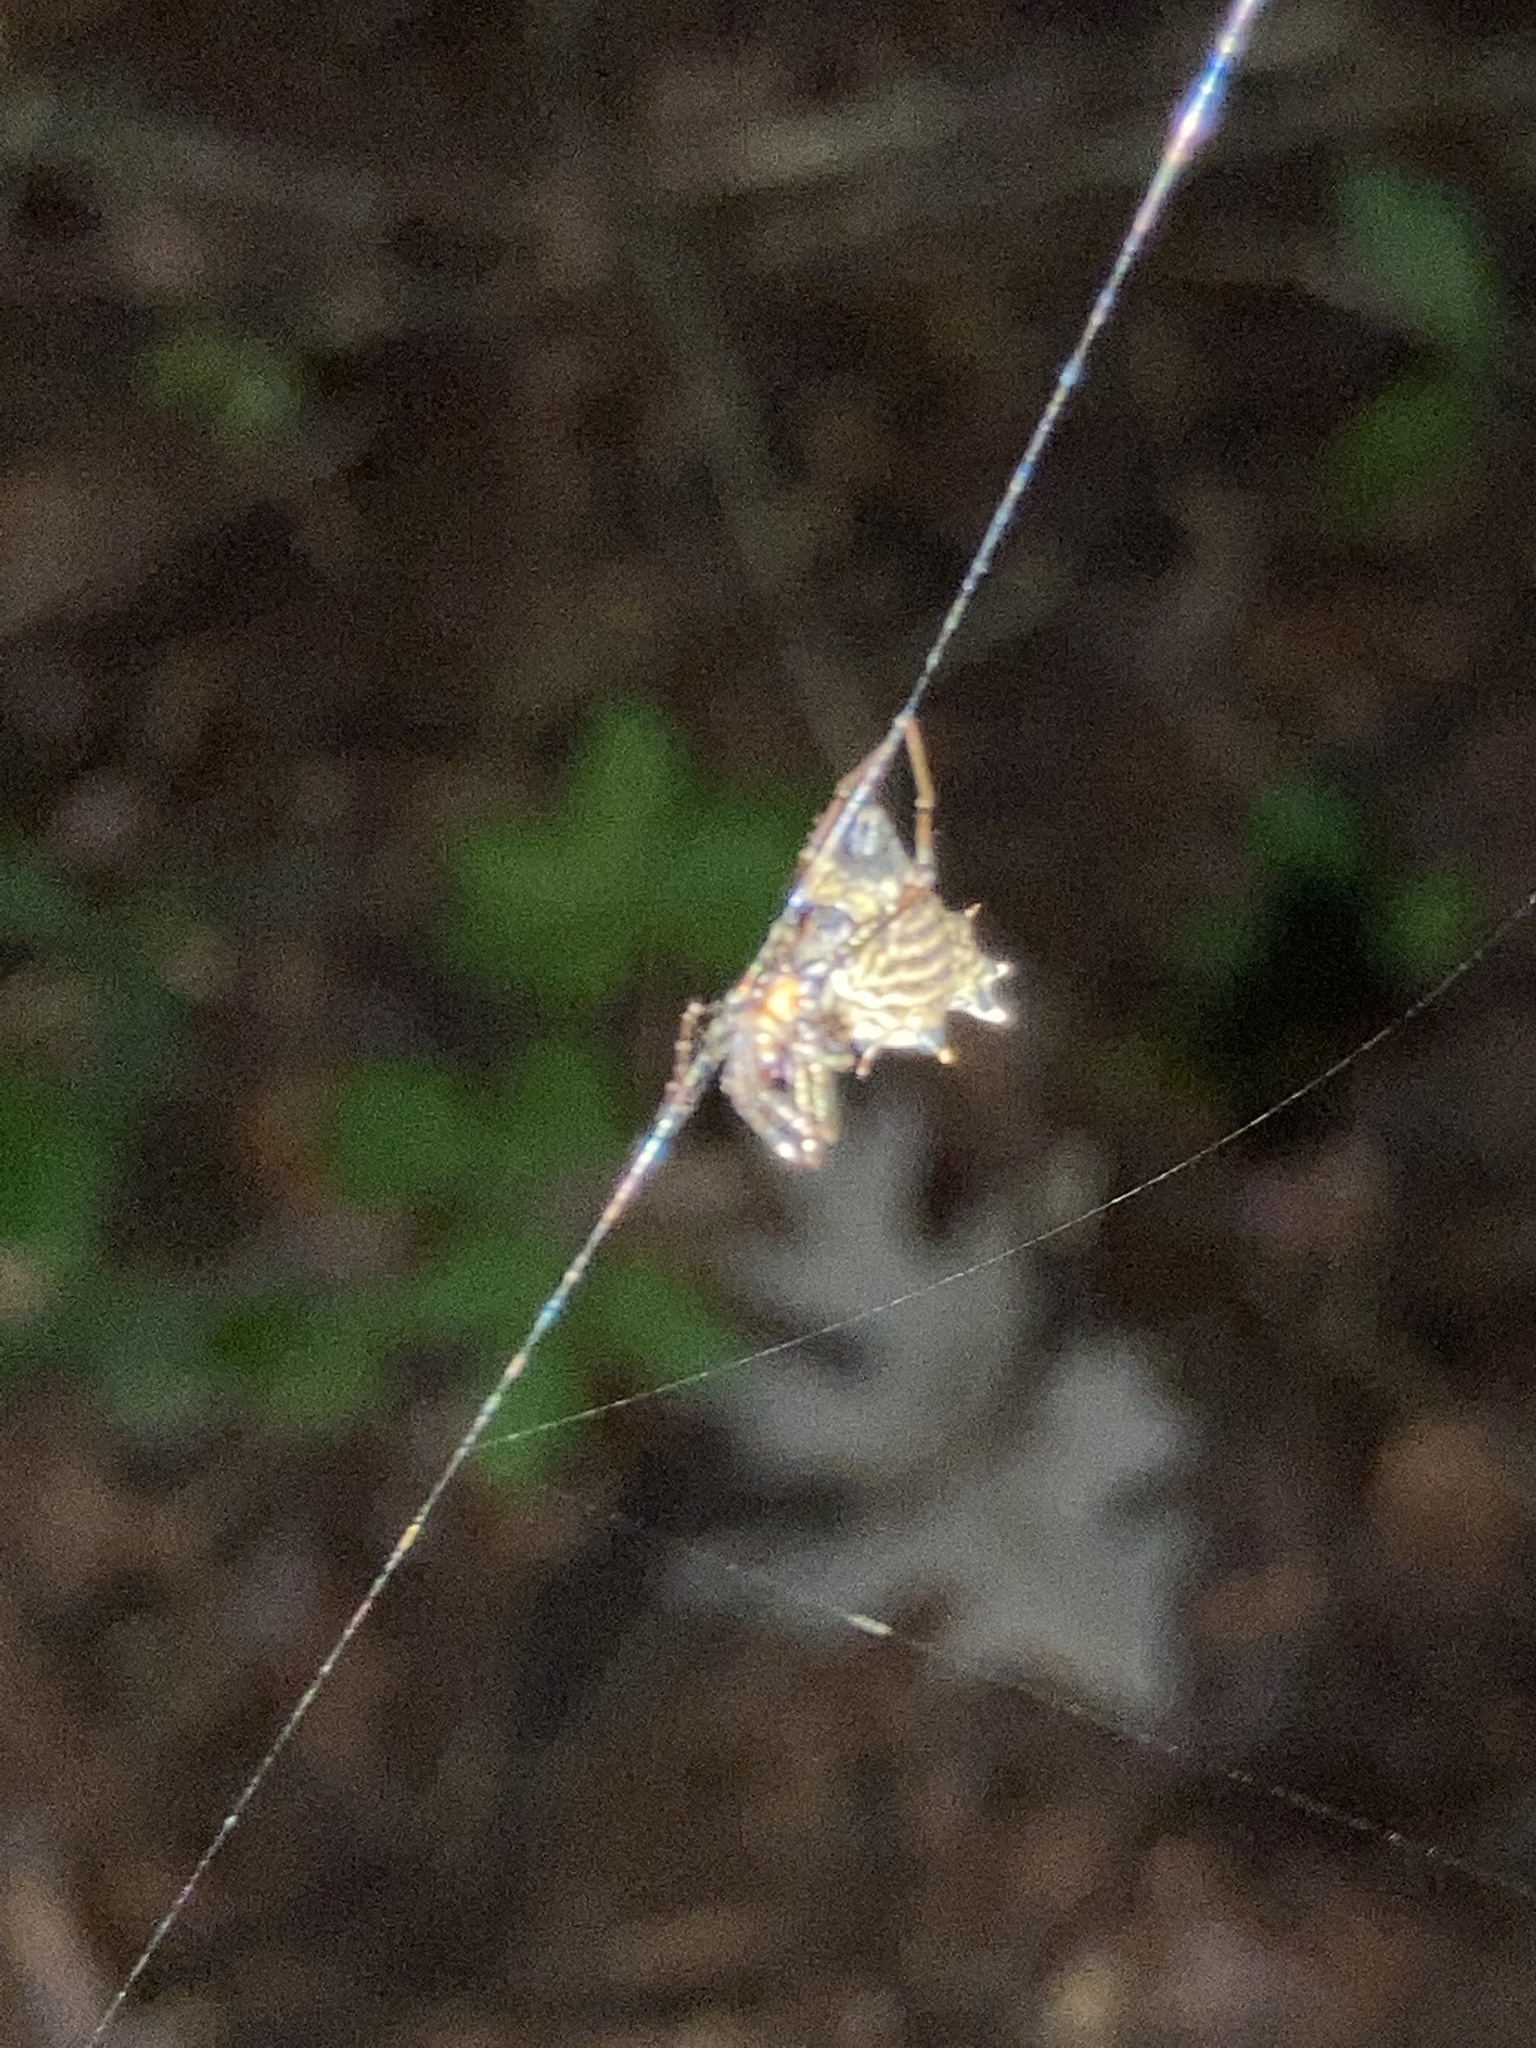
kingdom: Animalia
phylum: Arthropoda
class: Arachnida
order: Araneae
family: Araneidae
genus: Micrathena
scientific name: Micrathena gracilis
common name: Orb weavers
